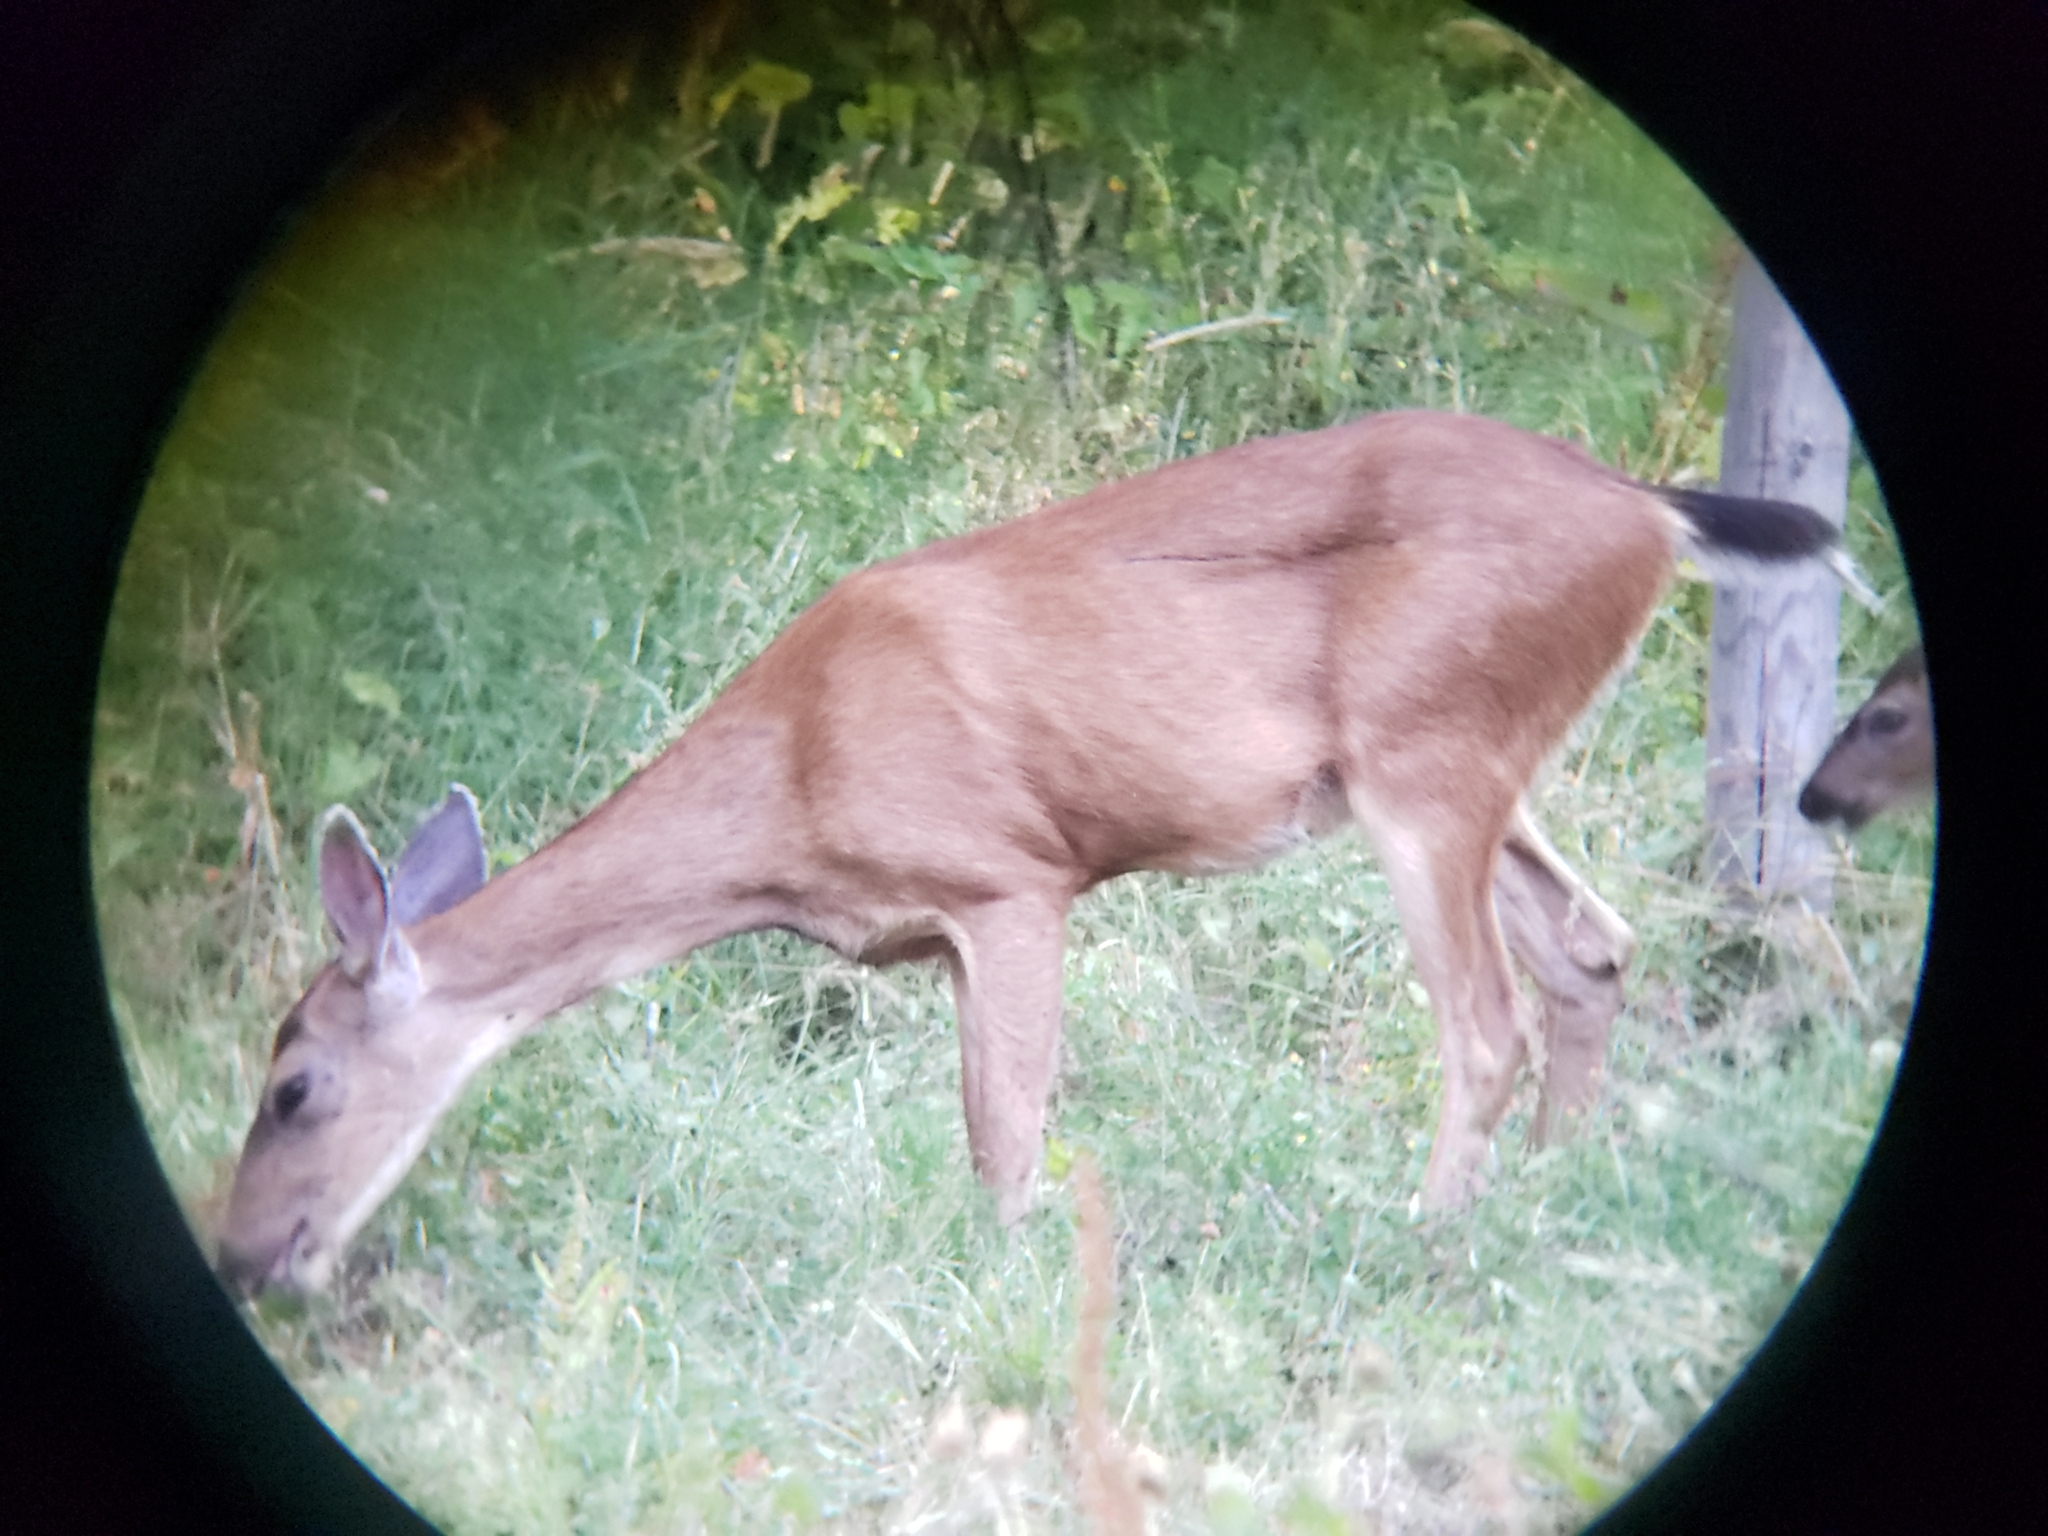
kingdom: Animalia
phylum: Chordata
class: Mammalia
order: Artiodactyla
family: Cervidae
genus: Odocoileus
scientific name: Odocoileus hemionus
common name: Mule deer
